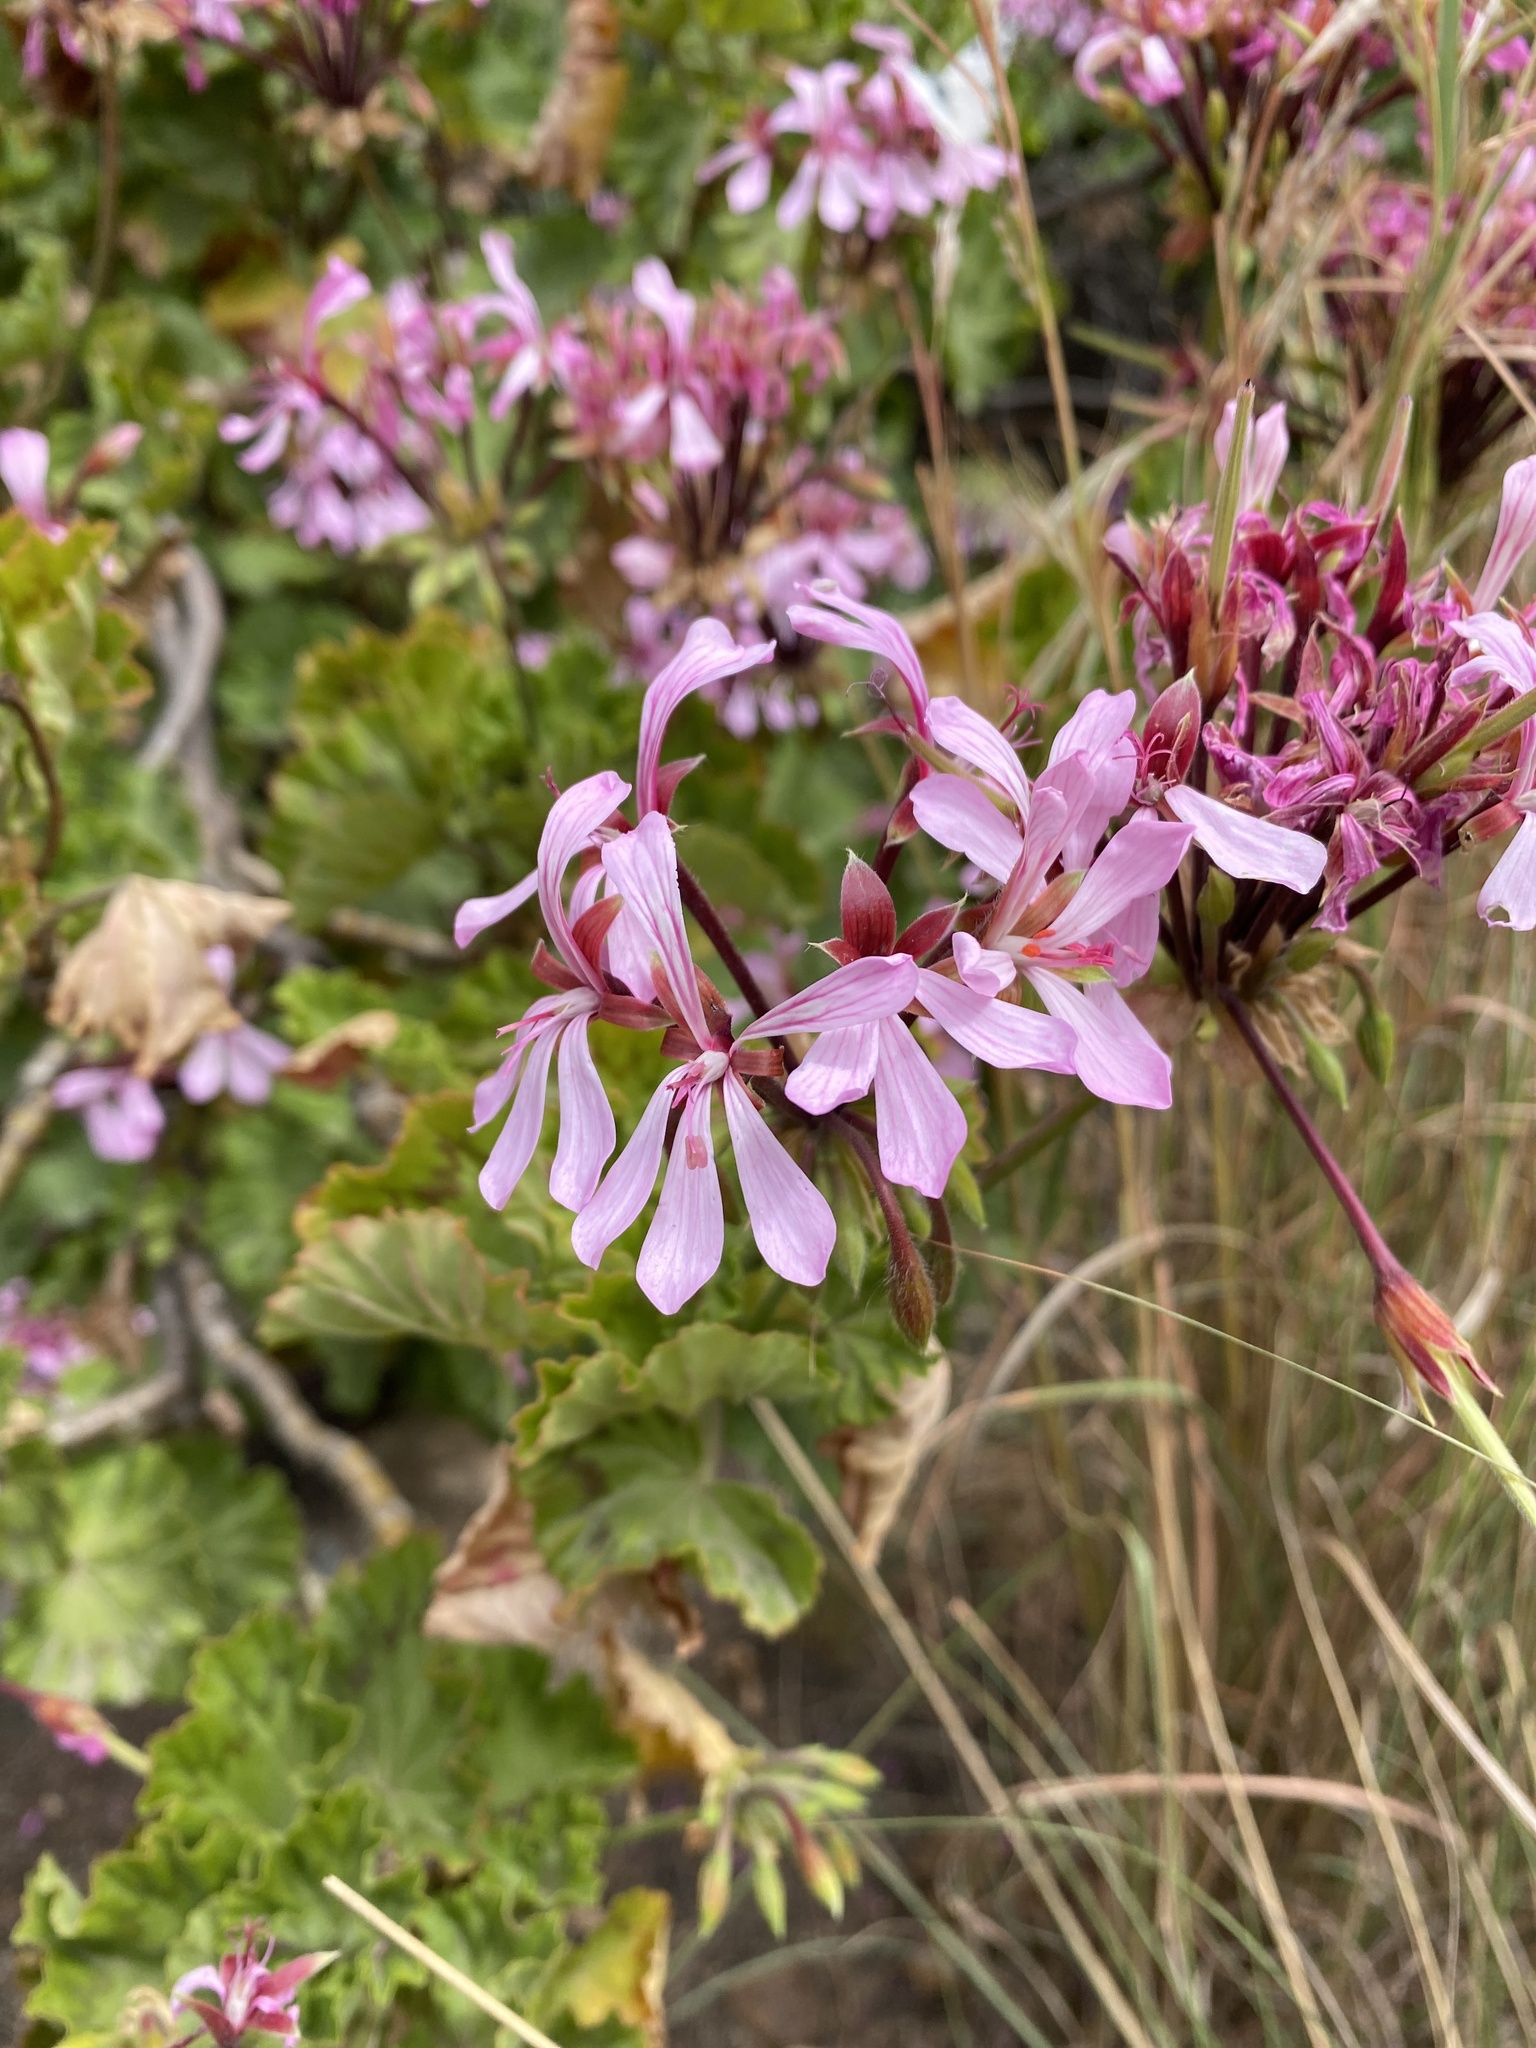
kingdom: Plantae
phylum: Tracheophyta
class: Magnoliopsida
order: Geraniales
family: Geraniaceae
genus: Pelargonium
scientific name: Pelargonium zonale
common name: Horseshoe geranium
